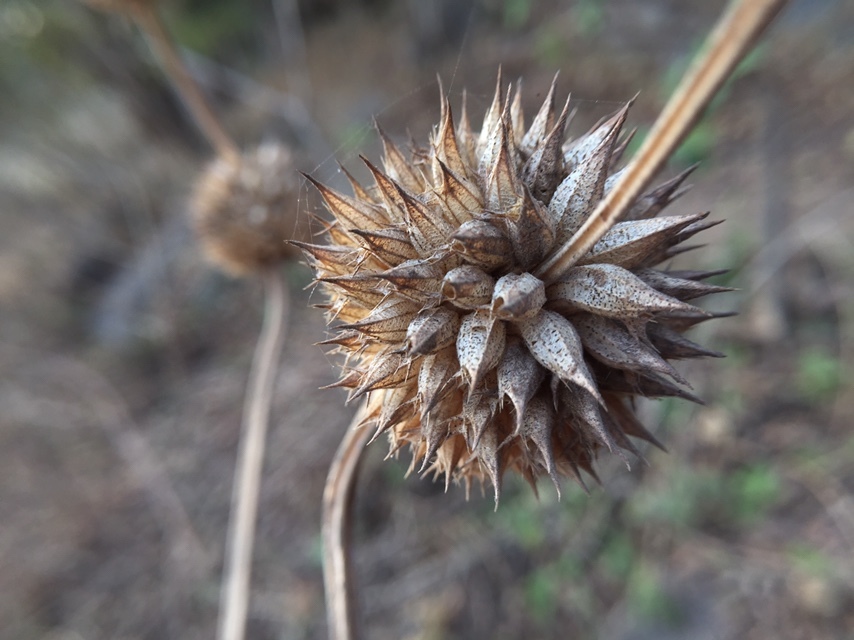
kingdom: Plantae
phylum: Tracheophyta
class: Magnoliopsida
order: Lamiales
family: Lamiaceae
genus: Leonotis
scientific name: Leonotis nepetifolia
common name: Christmas candlestick
